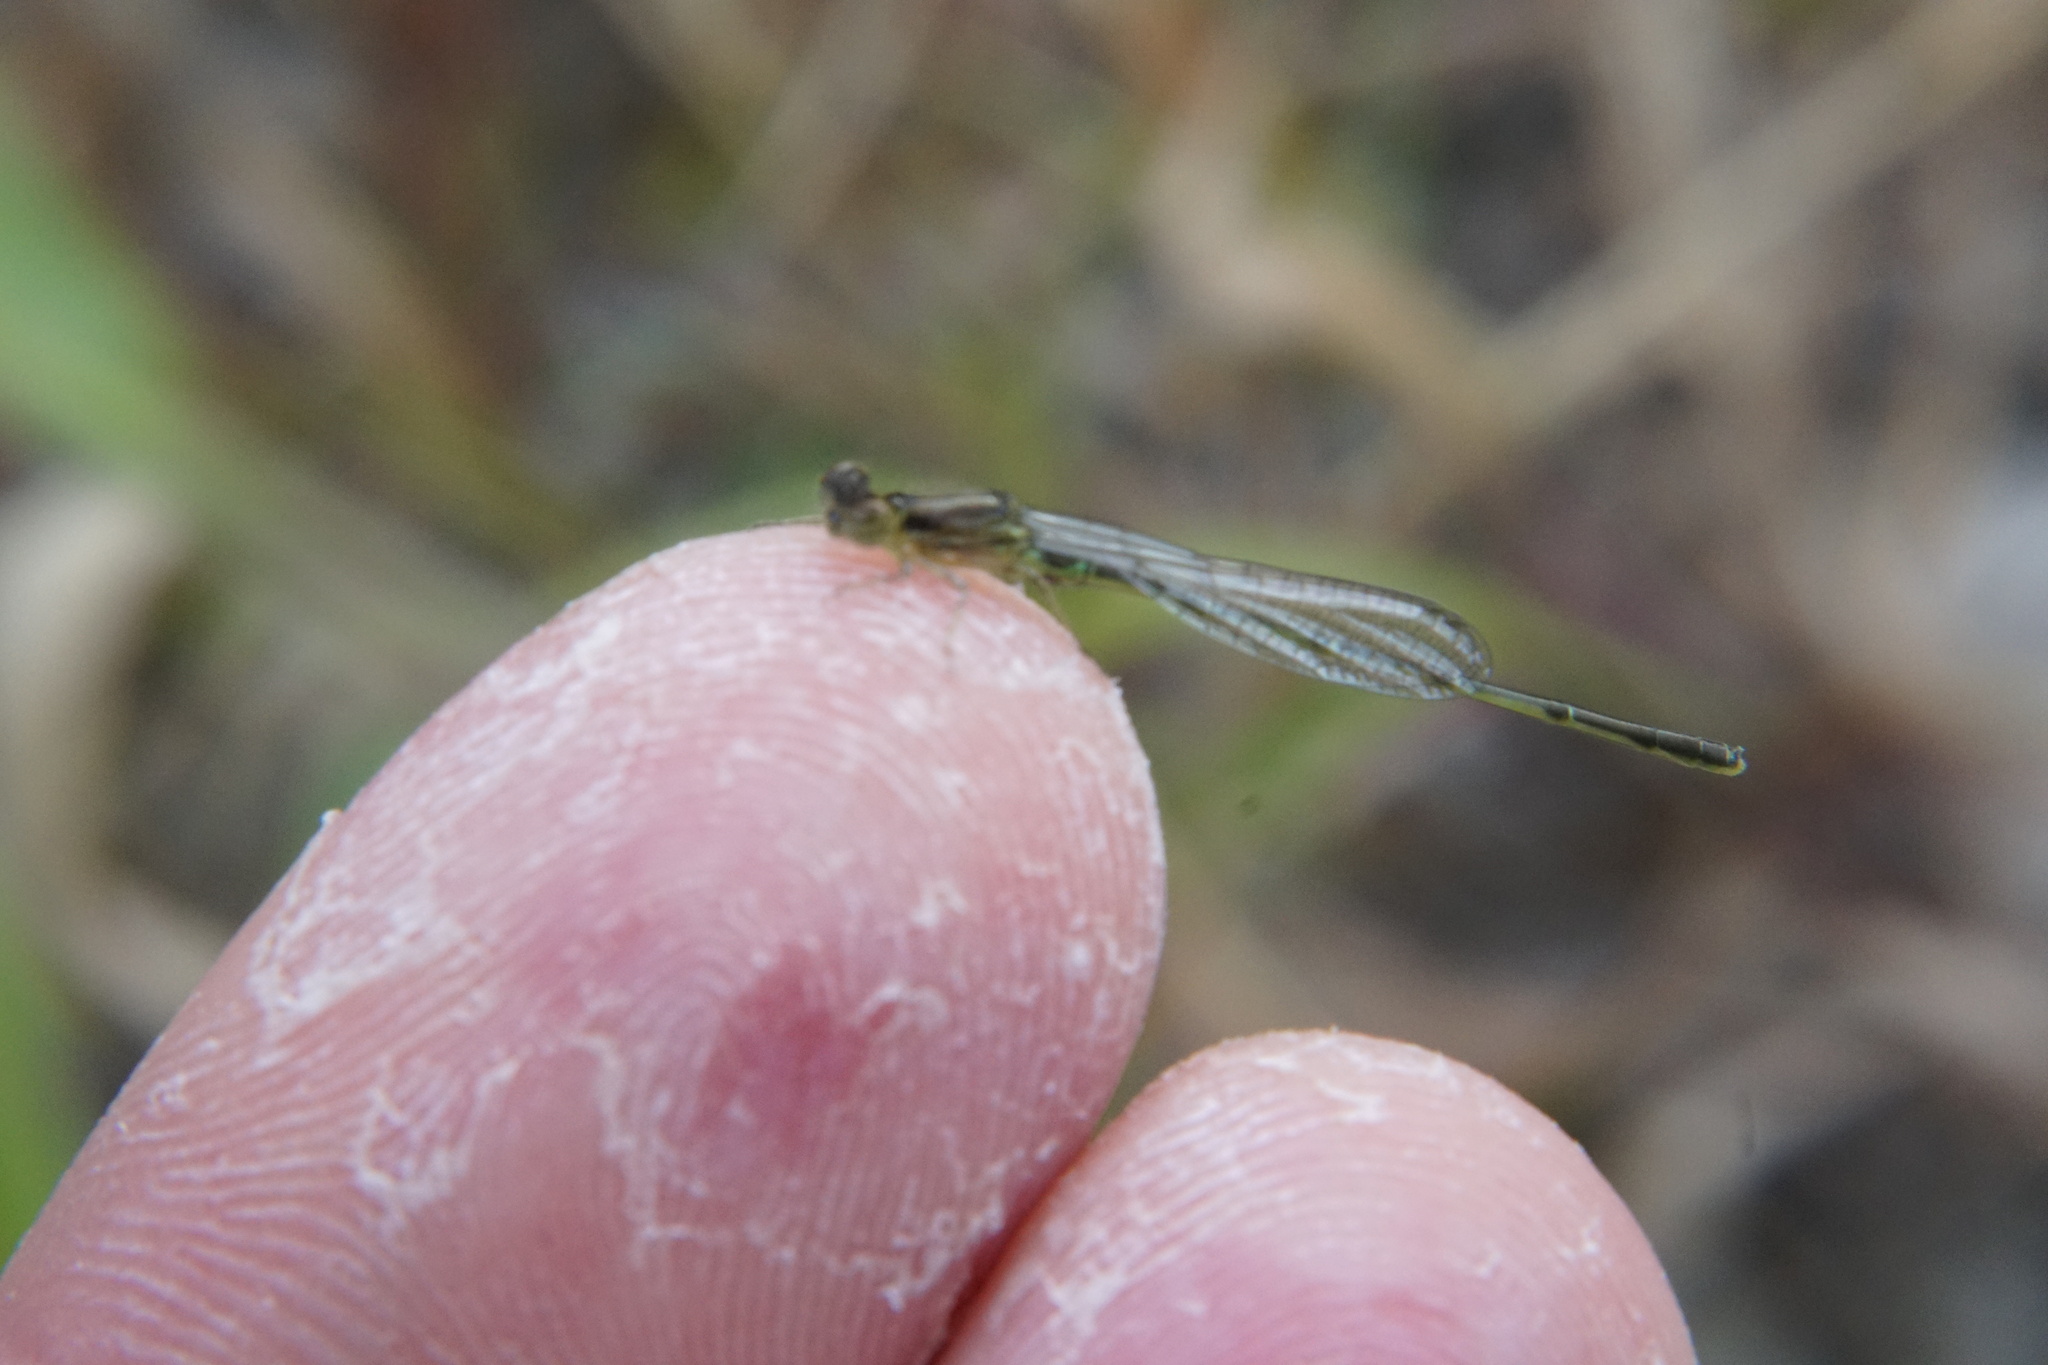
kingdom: Animalia
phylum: Arthropoda
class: Insecta
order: Odonata
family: Coenagrionidae
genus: Ischnura
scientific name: Ischnura posita
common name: Fragile forktail
